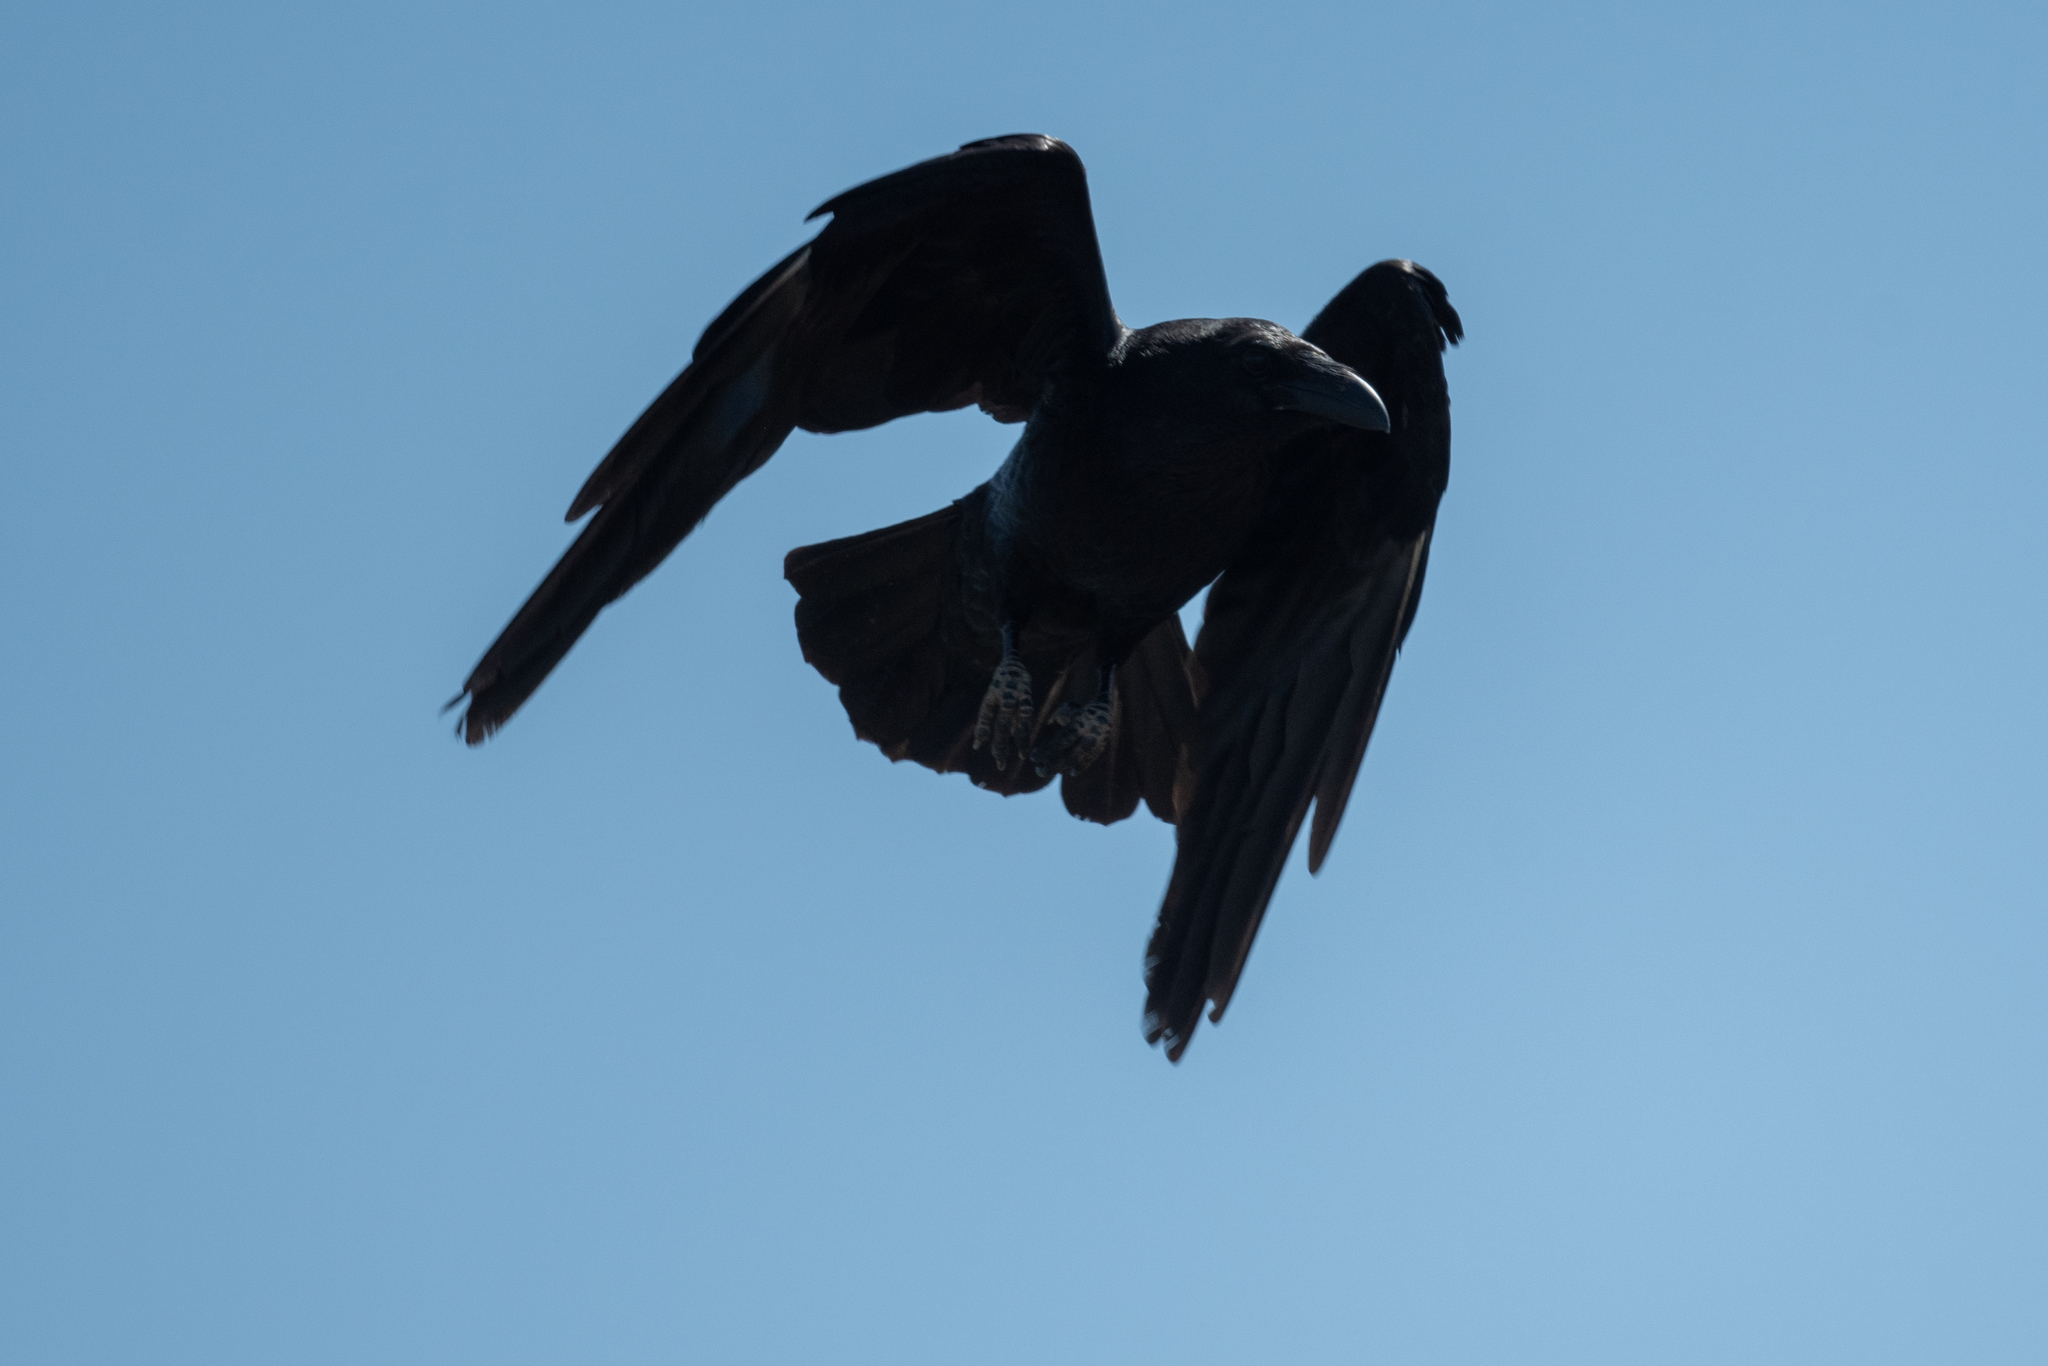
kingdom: Animalia
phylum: Chordata
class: Aves
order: Passeriformes
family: Corvidae
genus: Corvus
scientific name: Corvus corax
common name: Common raven
